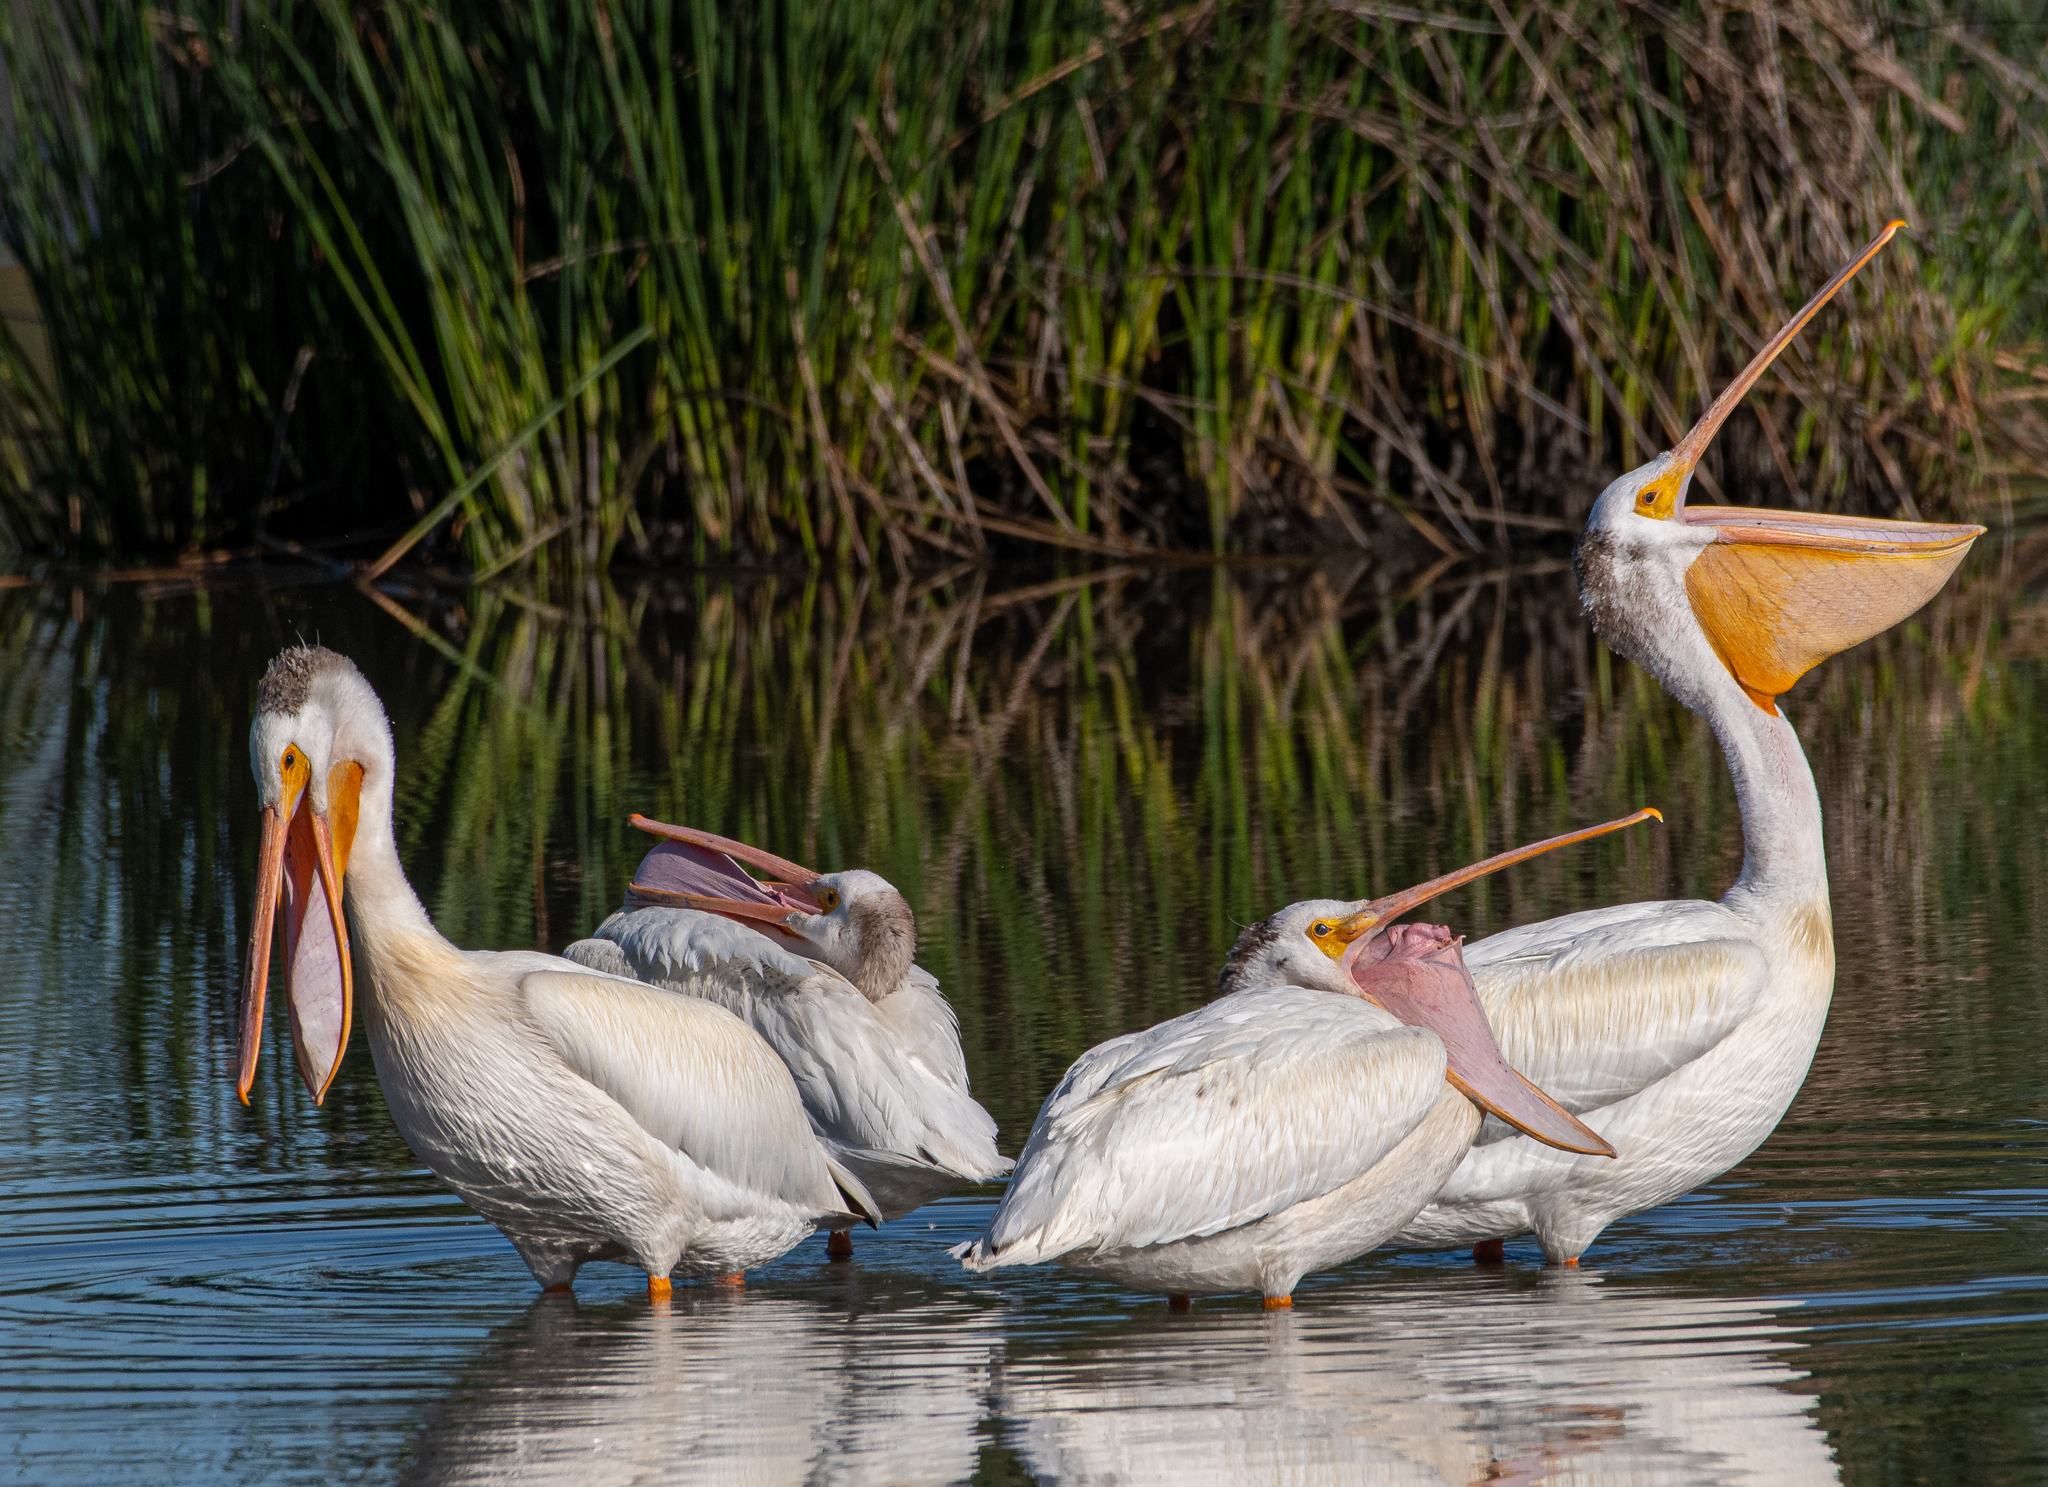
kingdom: Animalia
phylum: Chordata
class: Aves
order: Pelecaniformes
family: Pelecanidae
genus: Pelecanus
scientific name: Pelecanus erythrorhynchos
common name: American white pelican
